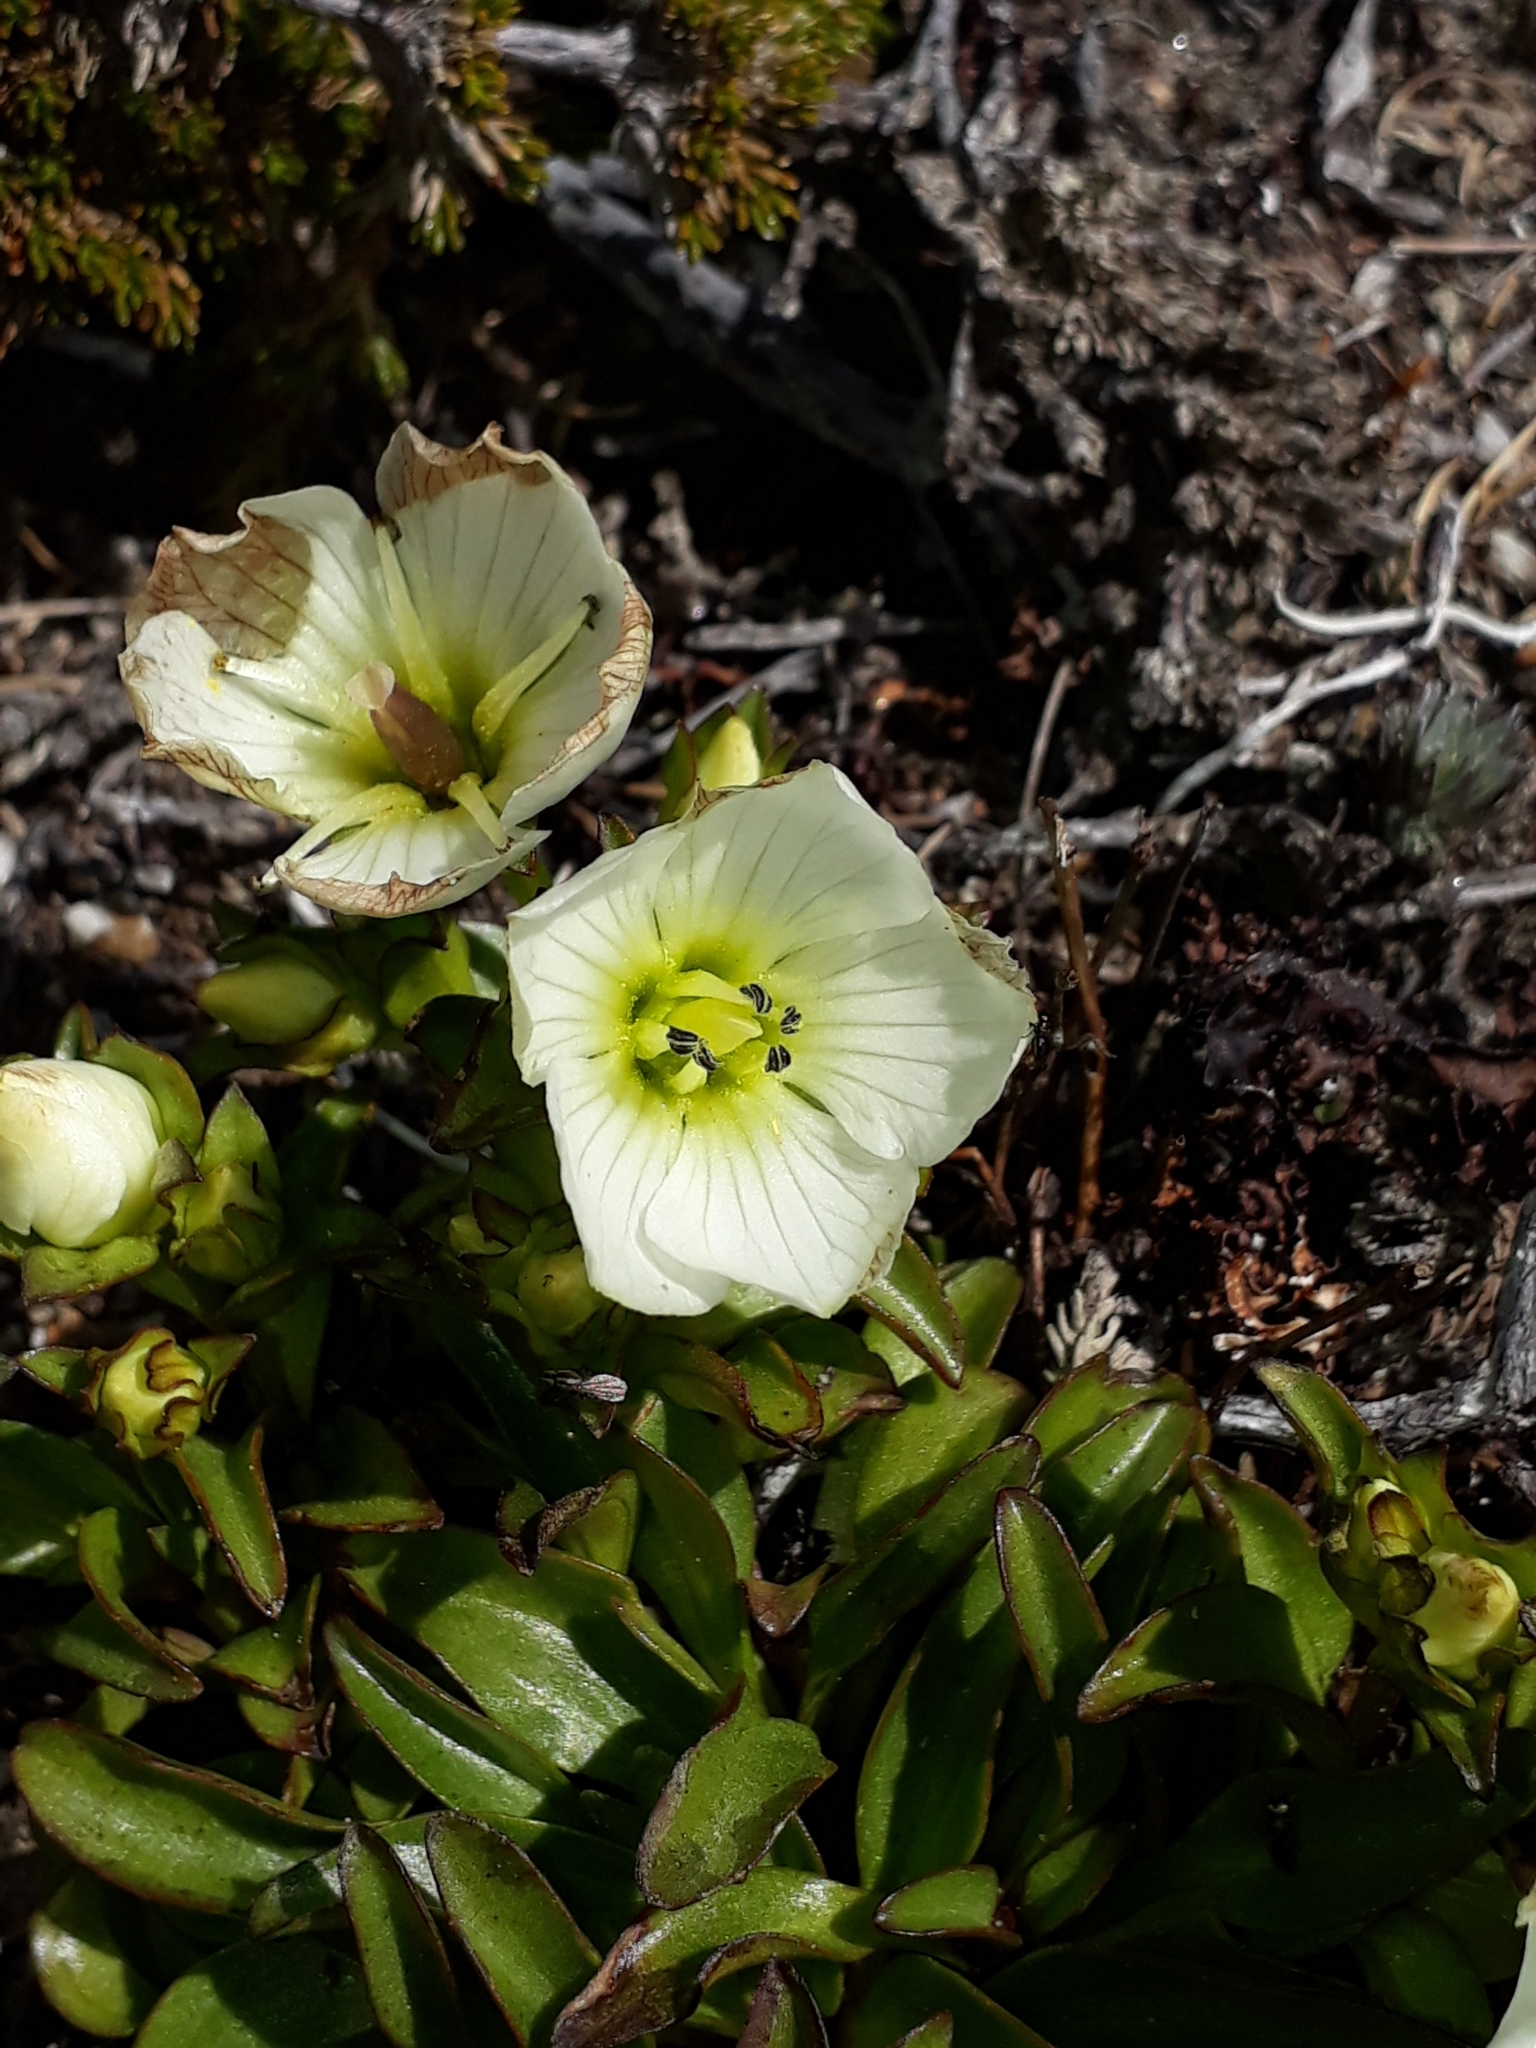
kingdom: Plantae
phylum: Tracheophyta
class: Magnoliopsida
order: Gentianales
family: Gentianaceae
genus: Gentianella
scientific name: Gentianella bellidifolia
